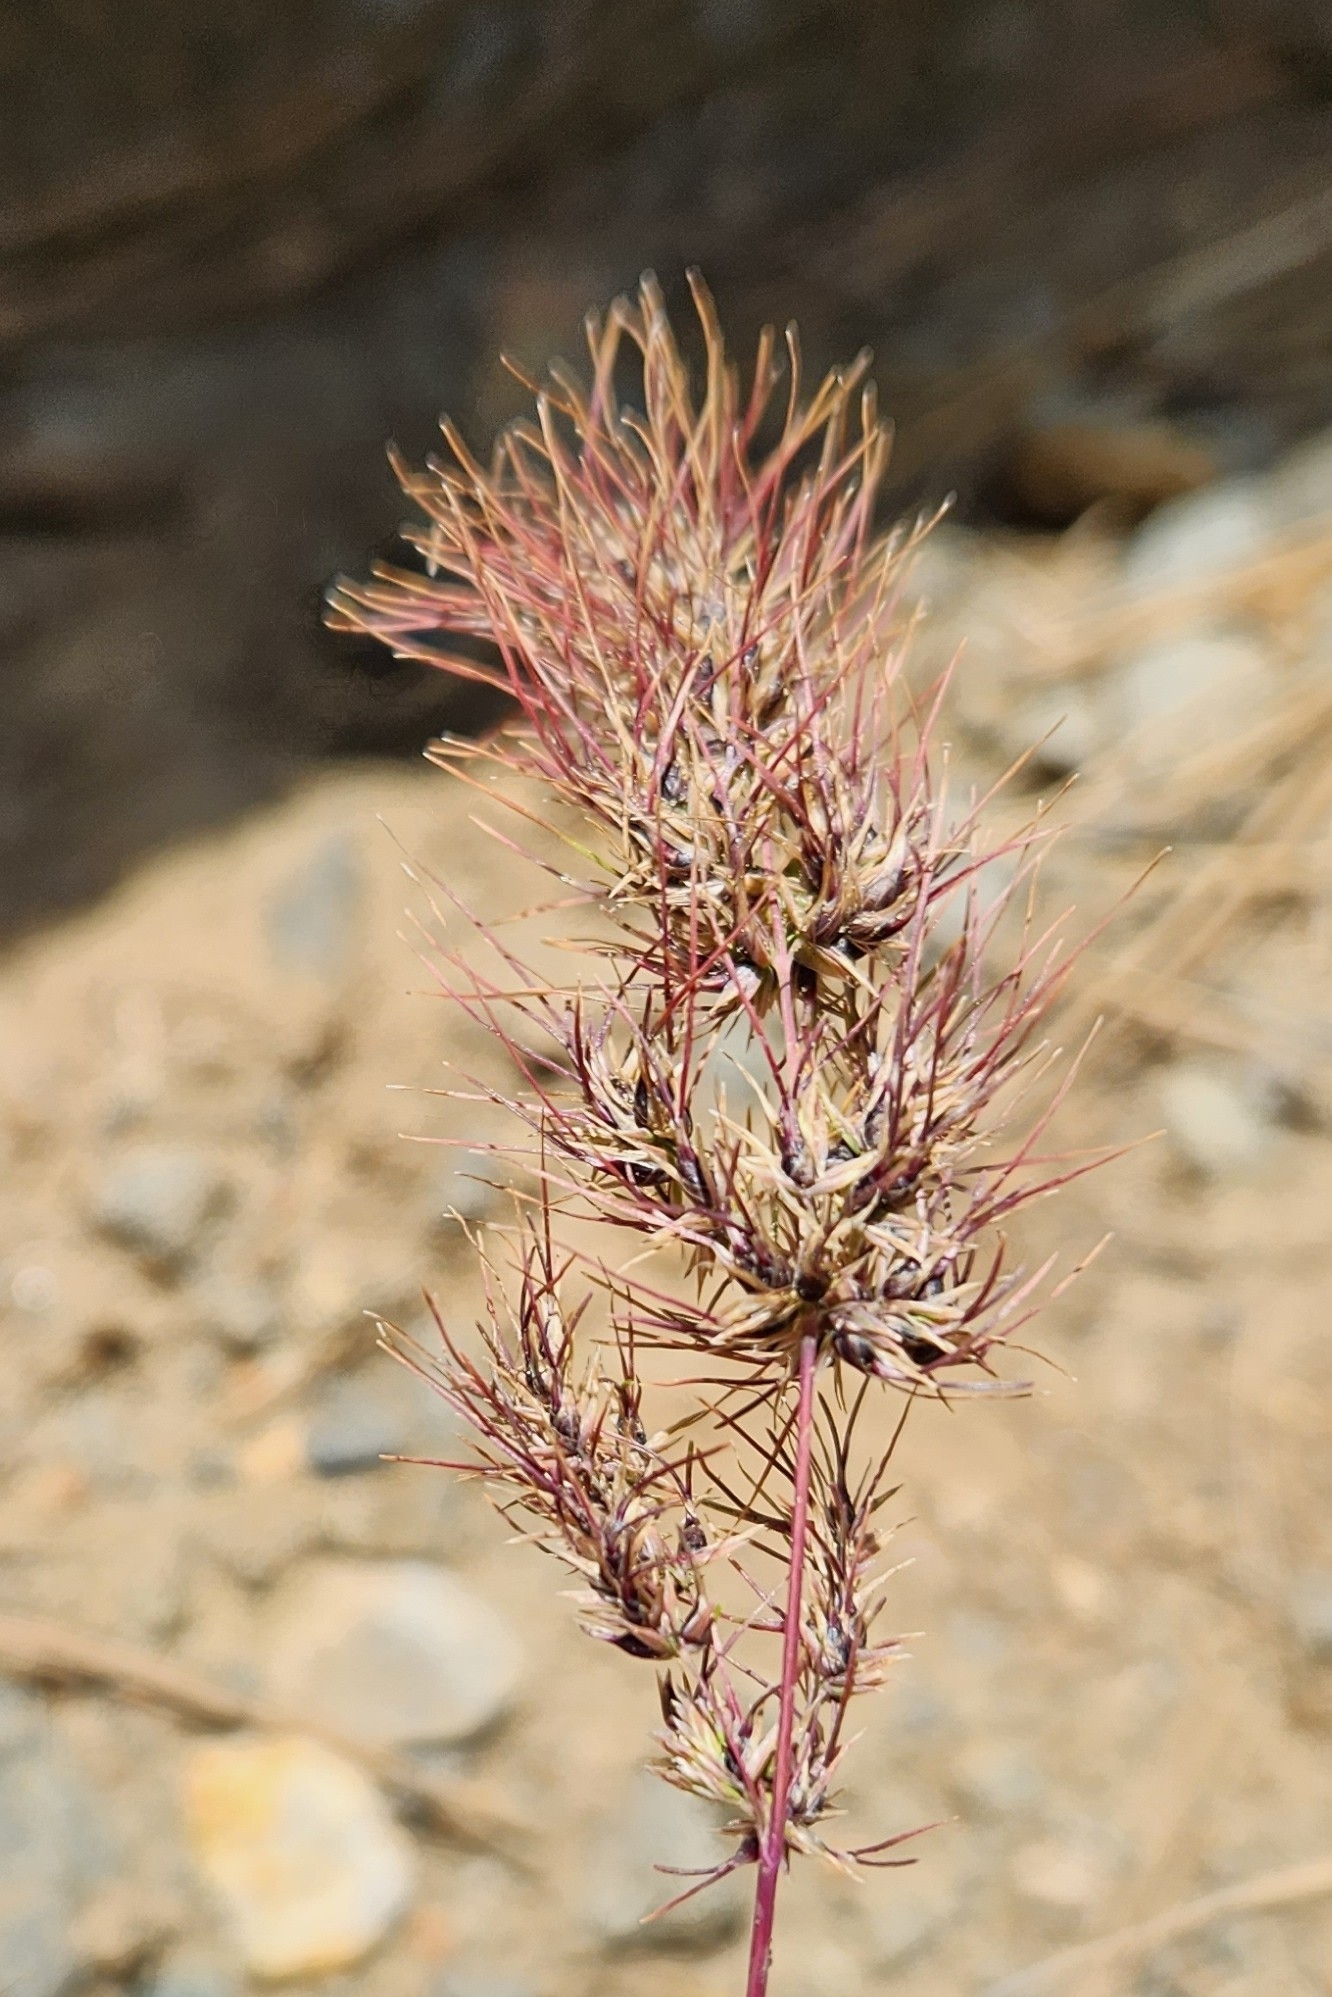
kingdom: Plantae
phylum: Tracheophyta
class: Liliopsida
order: Poales
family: Poaceae
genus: Poa
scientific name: Poa bulbosa
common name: Bulbous bluegrass
